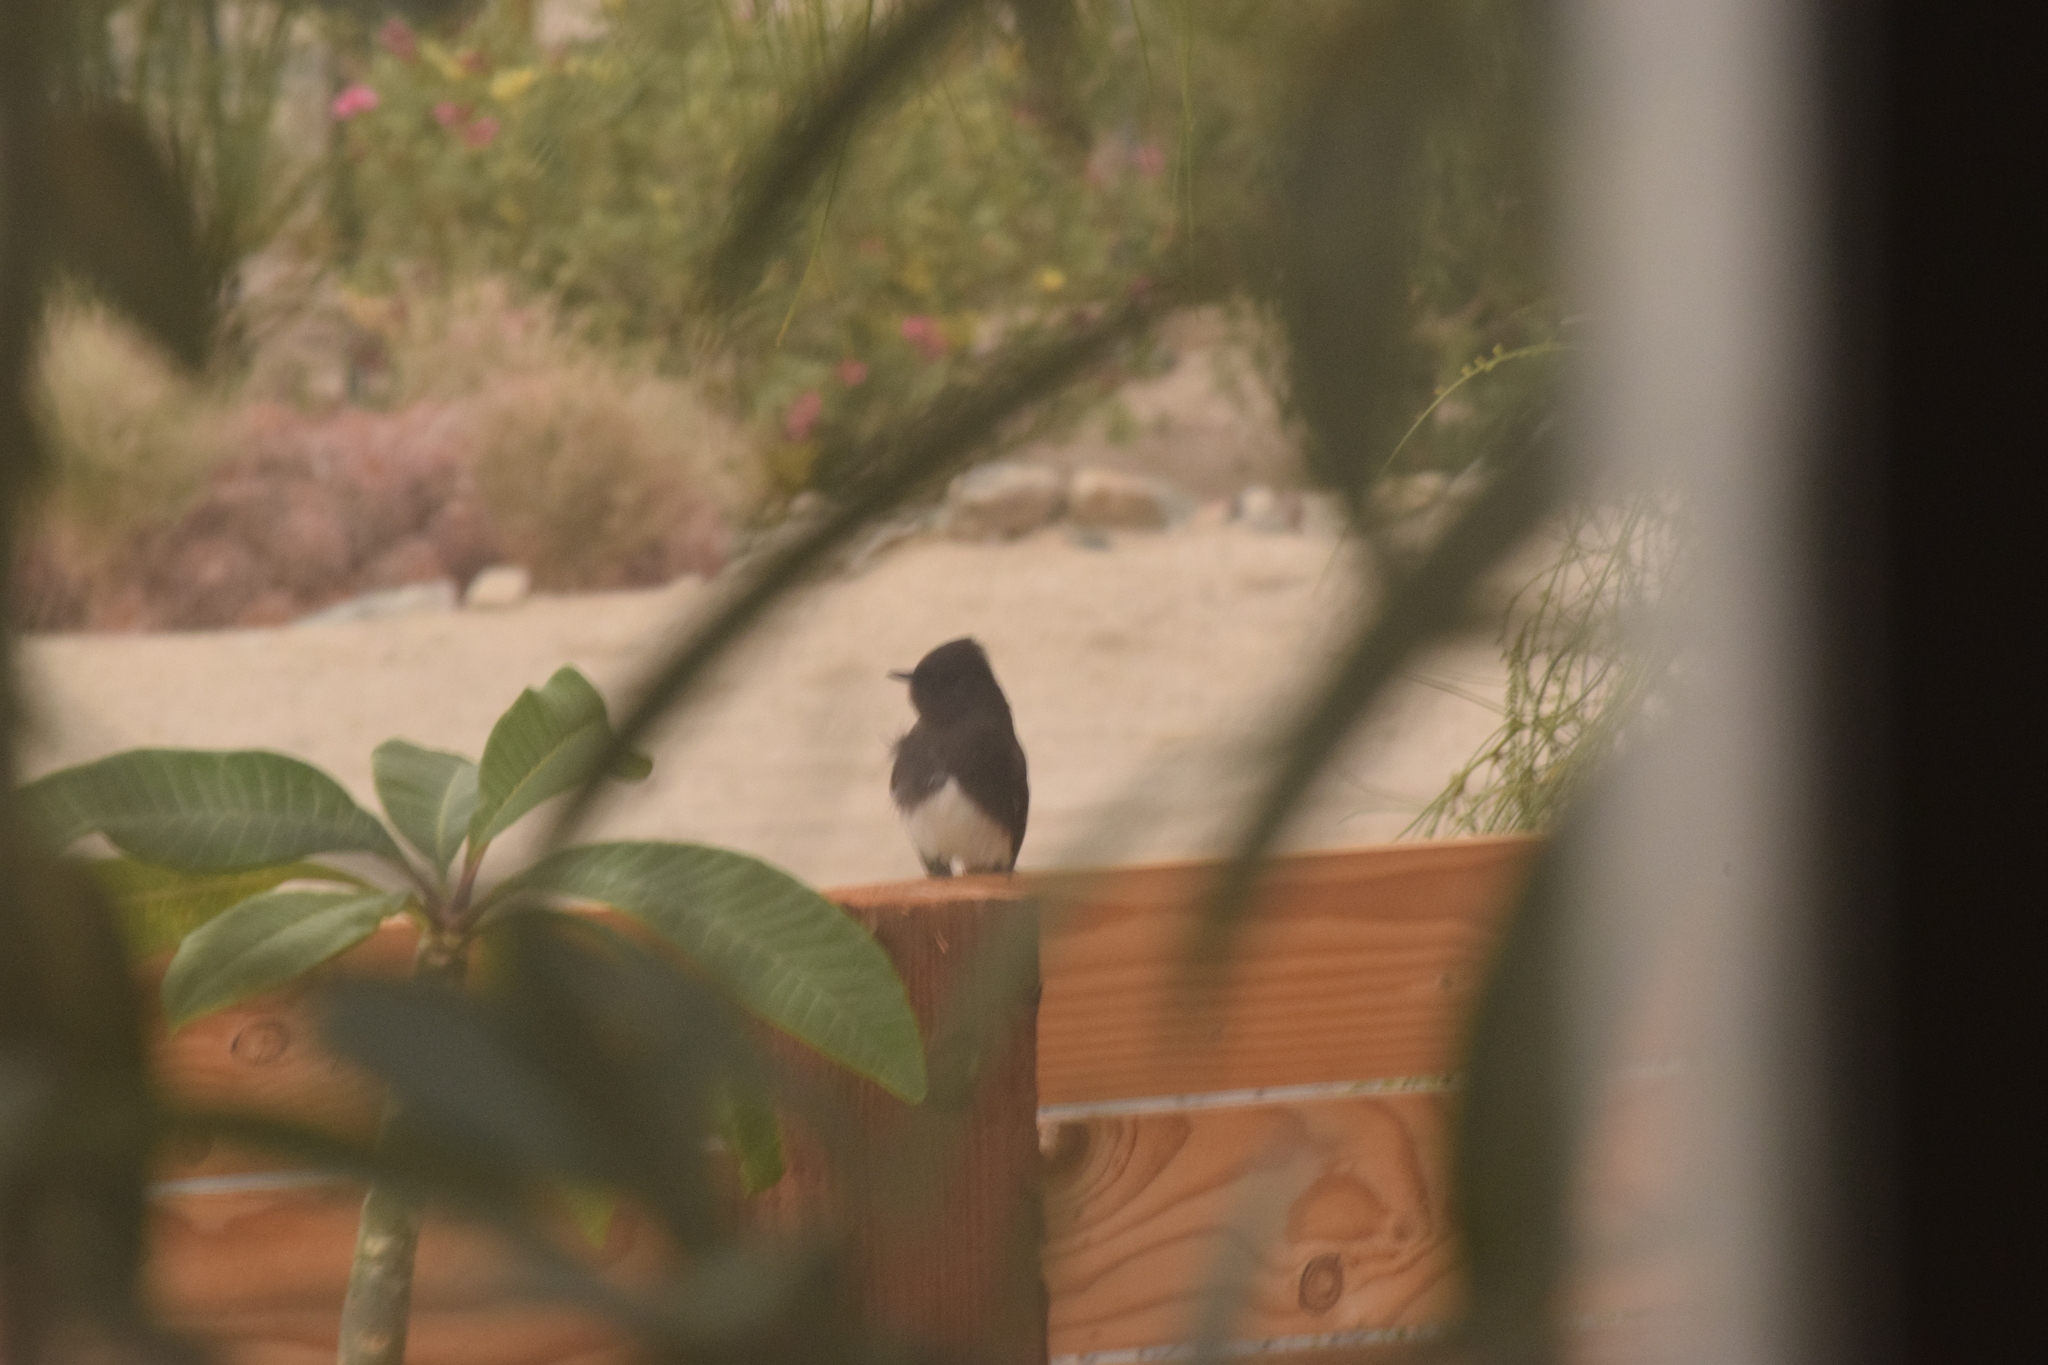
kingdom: Animalia
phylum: Chordata
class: Aves
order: Passeriformes
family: Tyrannidae
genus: Sayornis
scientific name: Sayornis nigricans
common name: Black phoebe
